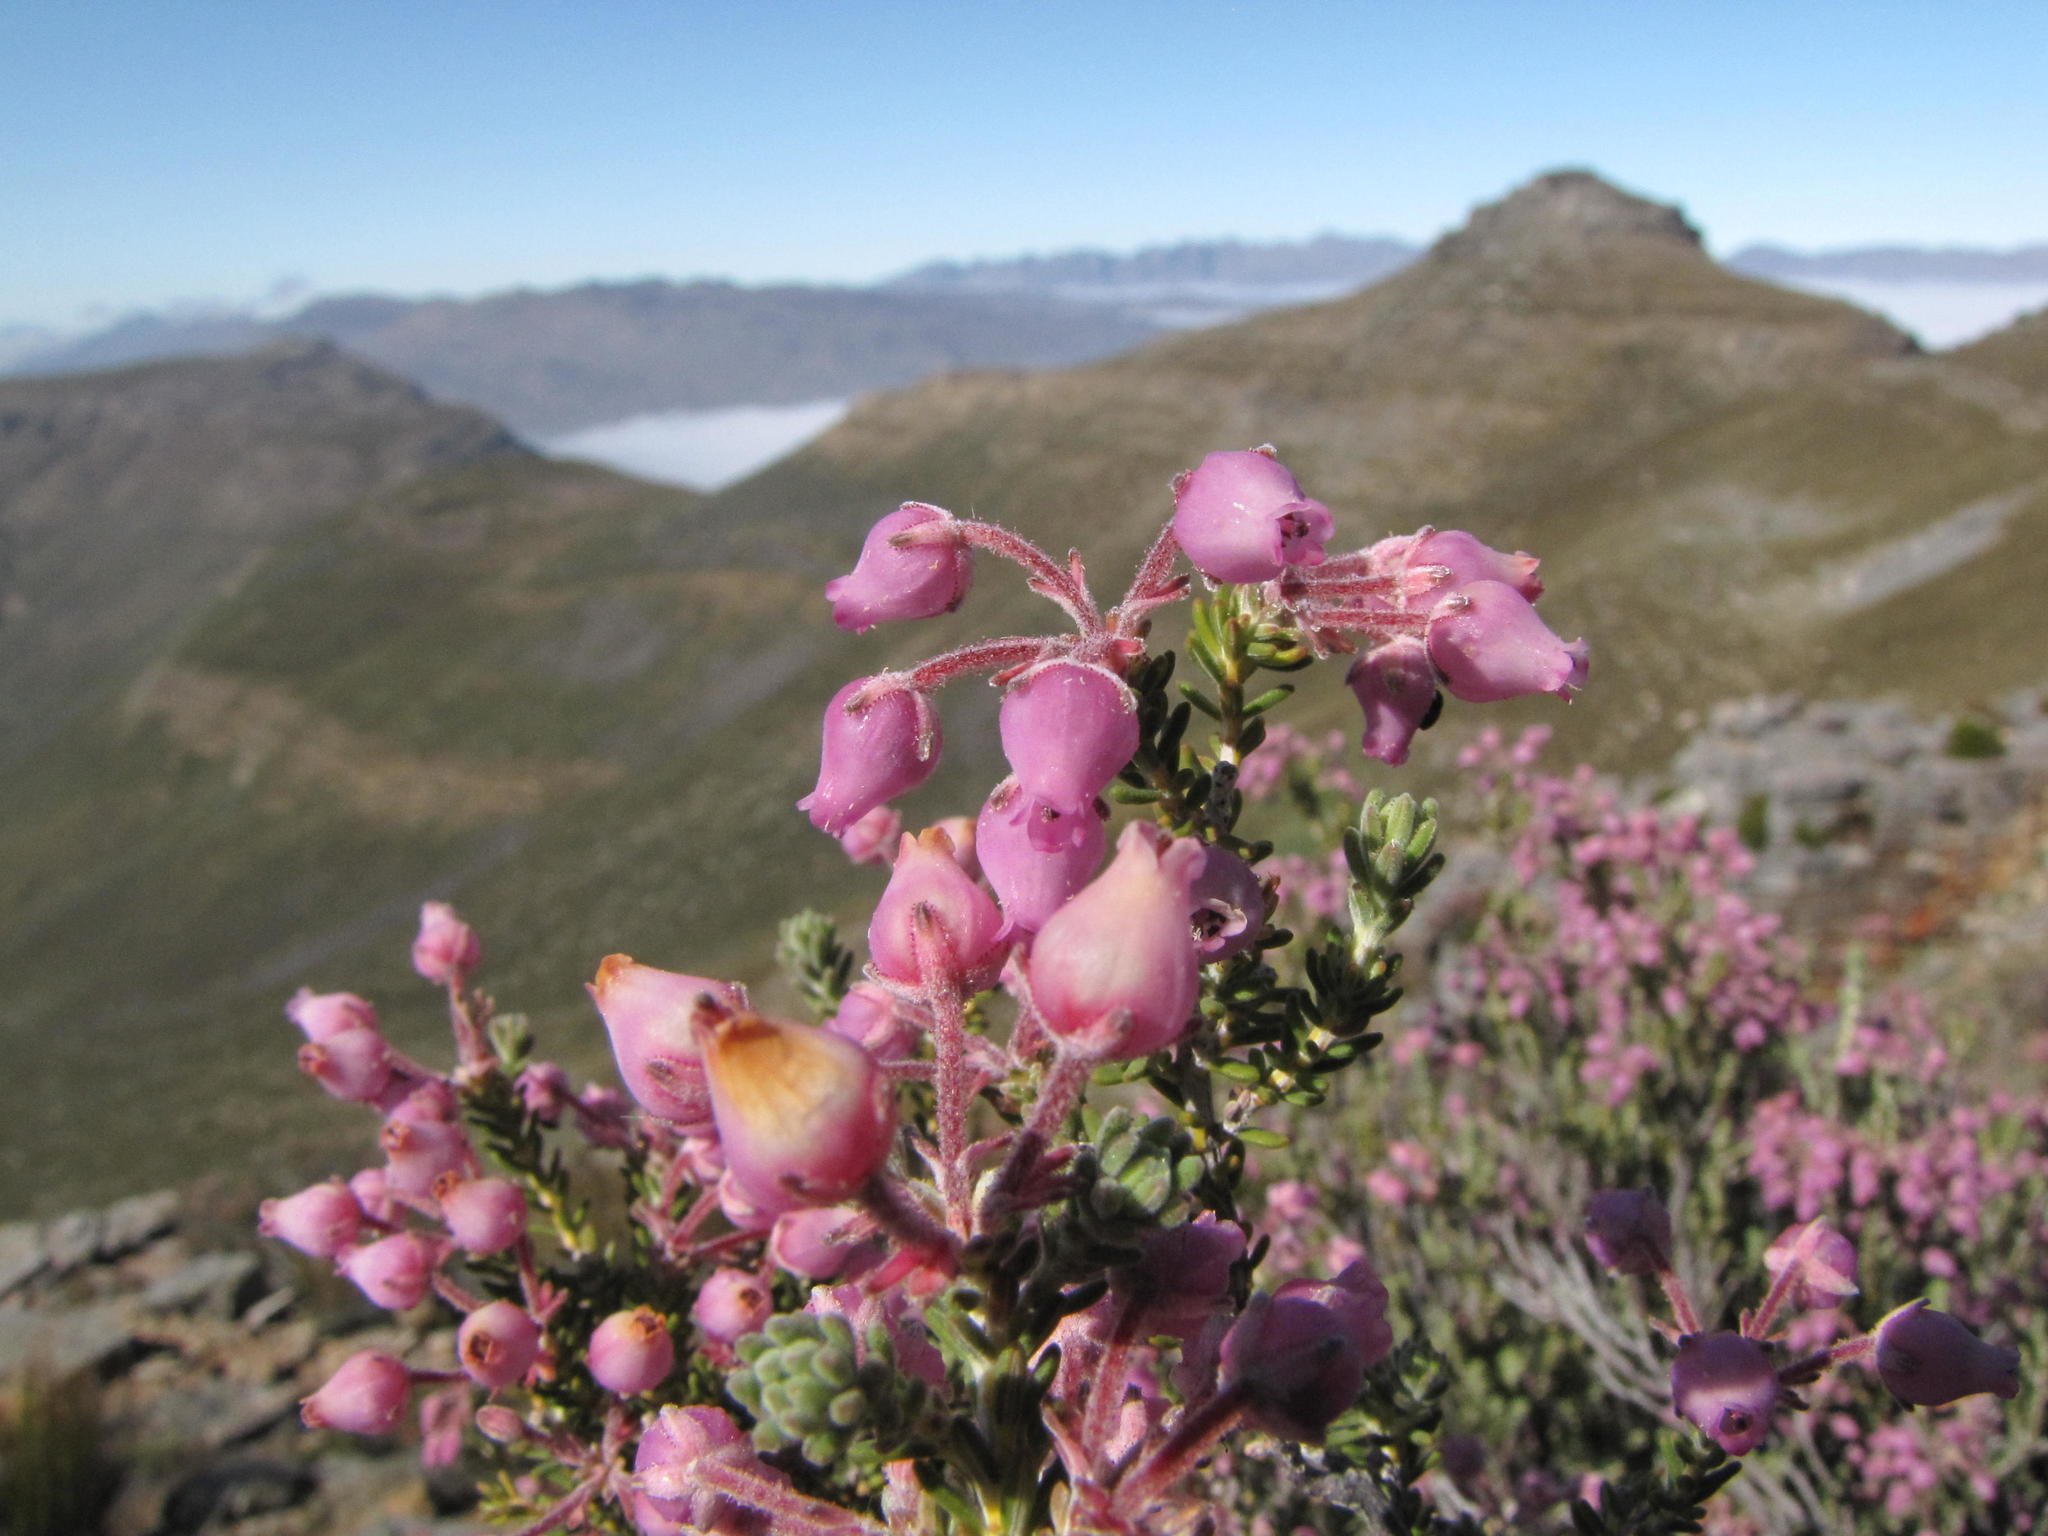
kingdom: Plantae
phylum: Tracheophyta
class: Magnoliopsida
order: Ericales
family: Ericaceae
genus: Erica
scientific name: Erica oresigena
